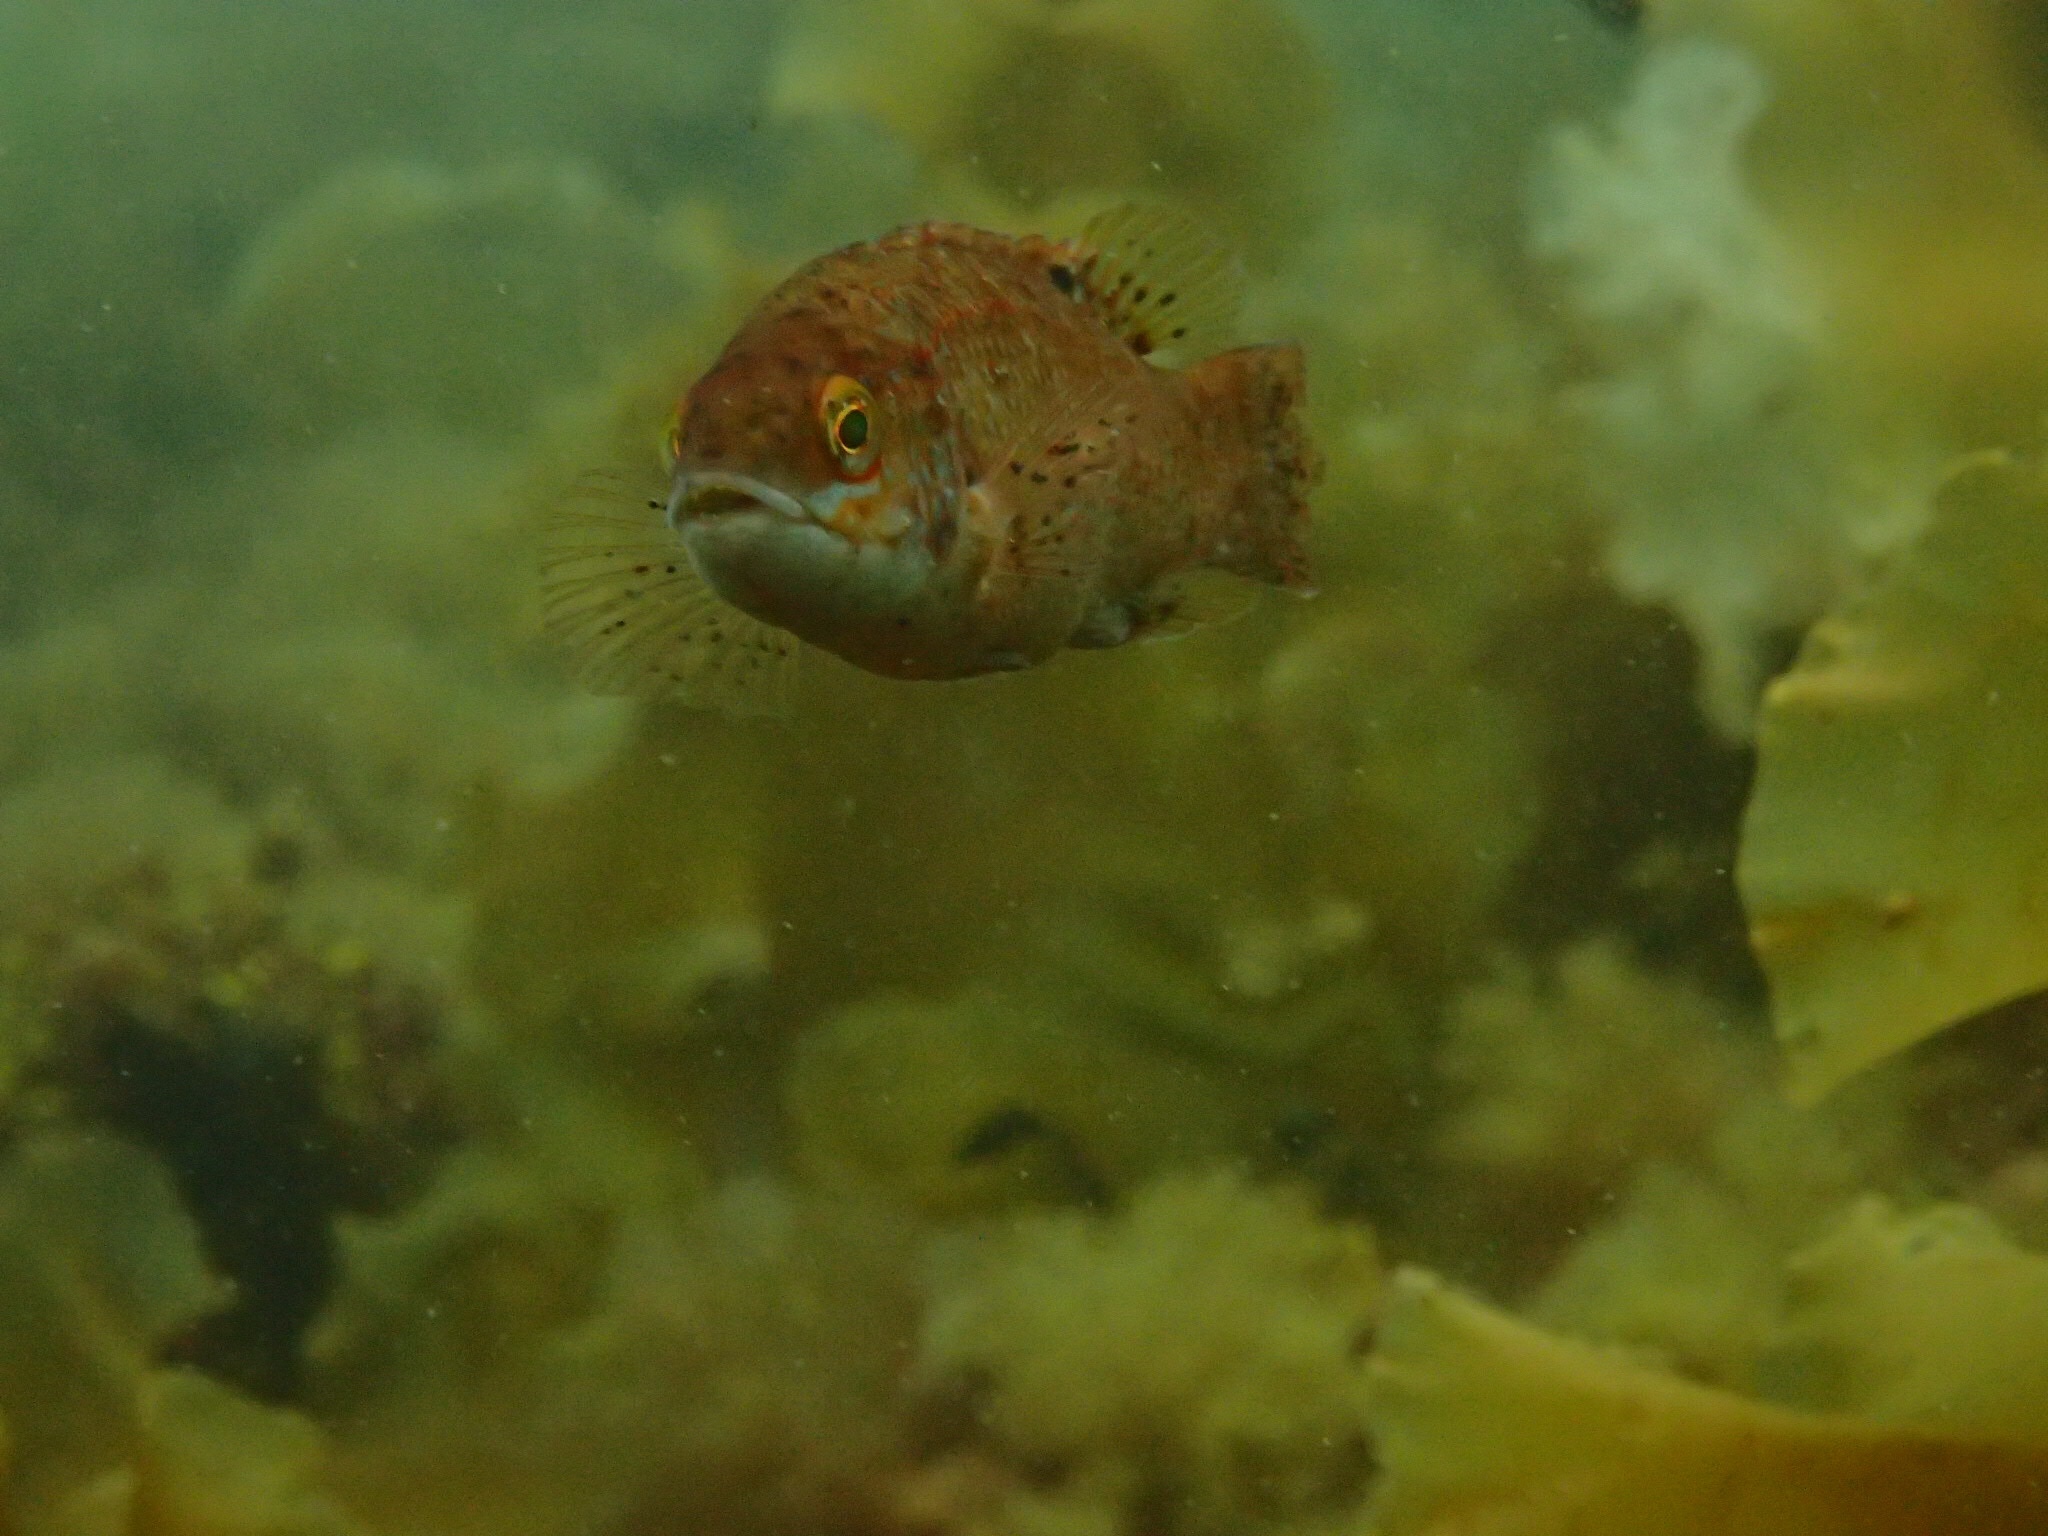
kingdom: Animalia
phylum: Chordata
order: Perciformes
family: Labridae
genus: Tautogolabrus
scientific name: Tautogolabrus adspersus
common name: Cunner
